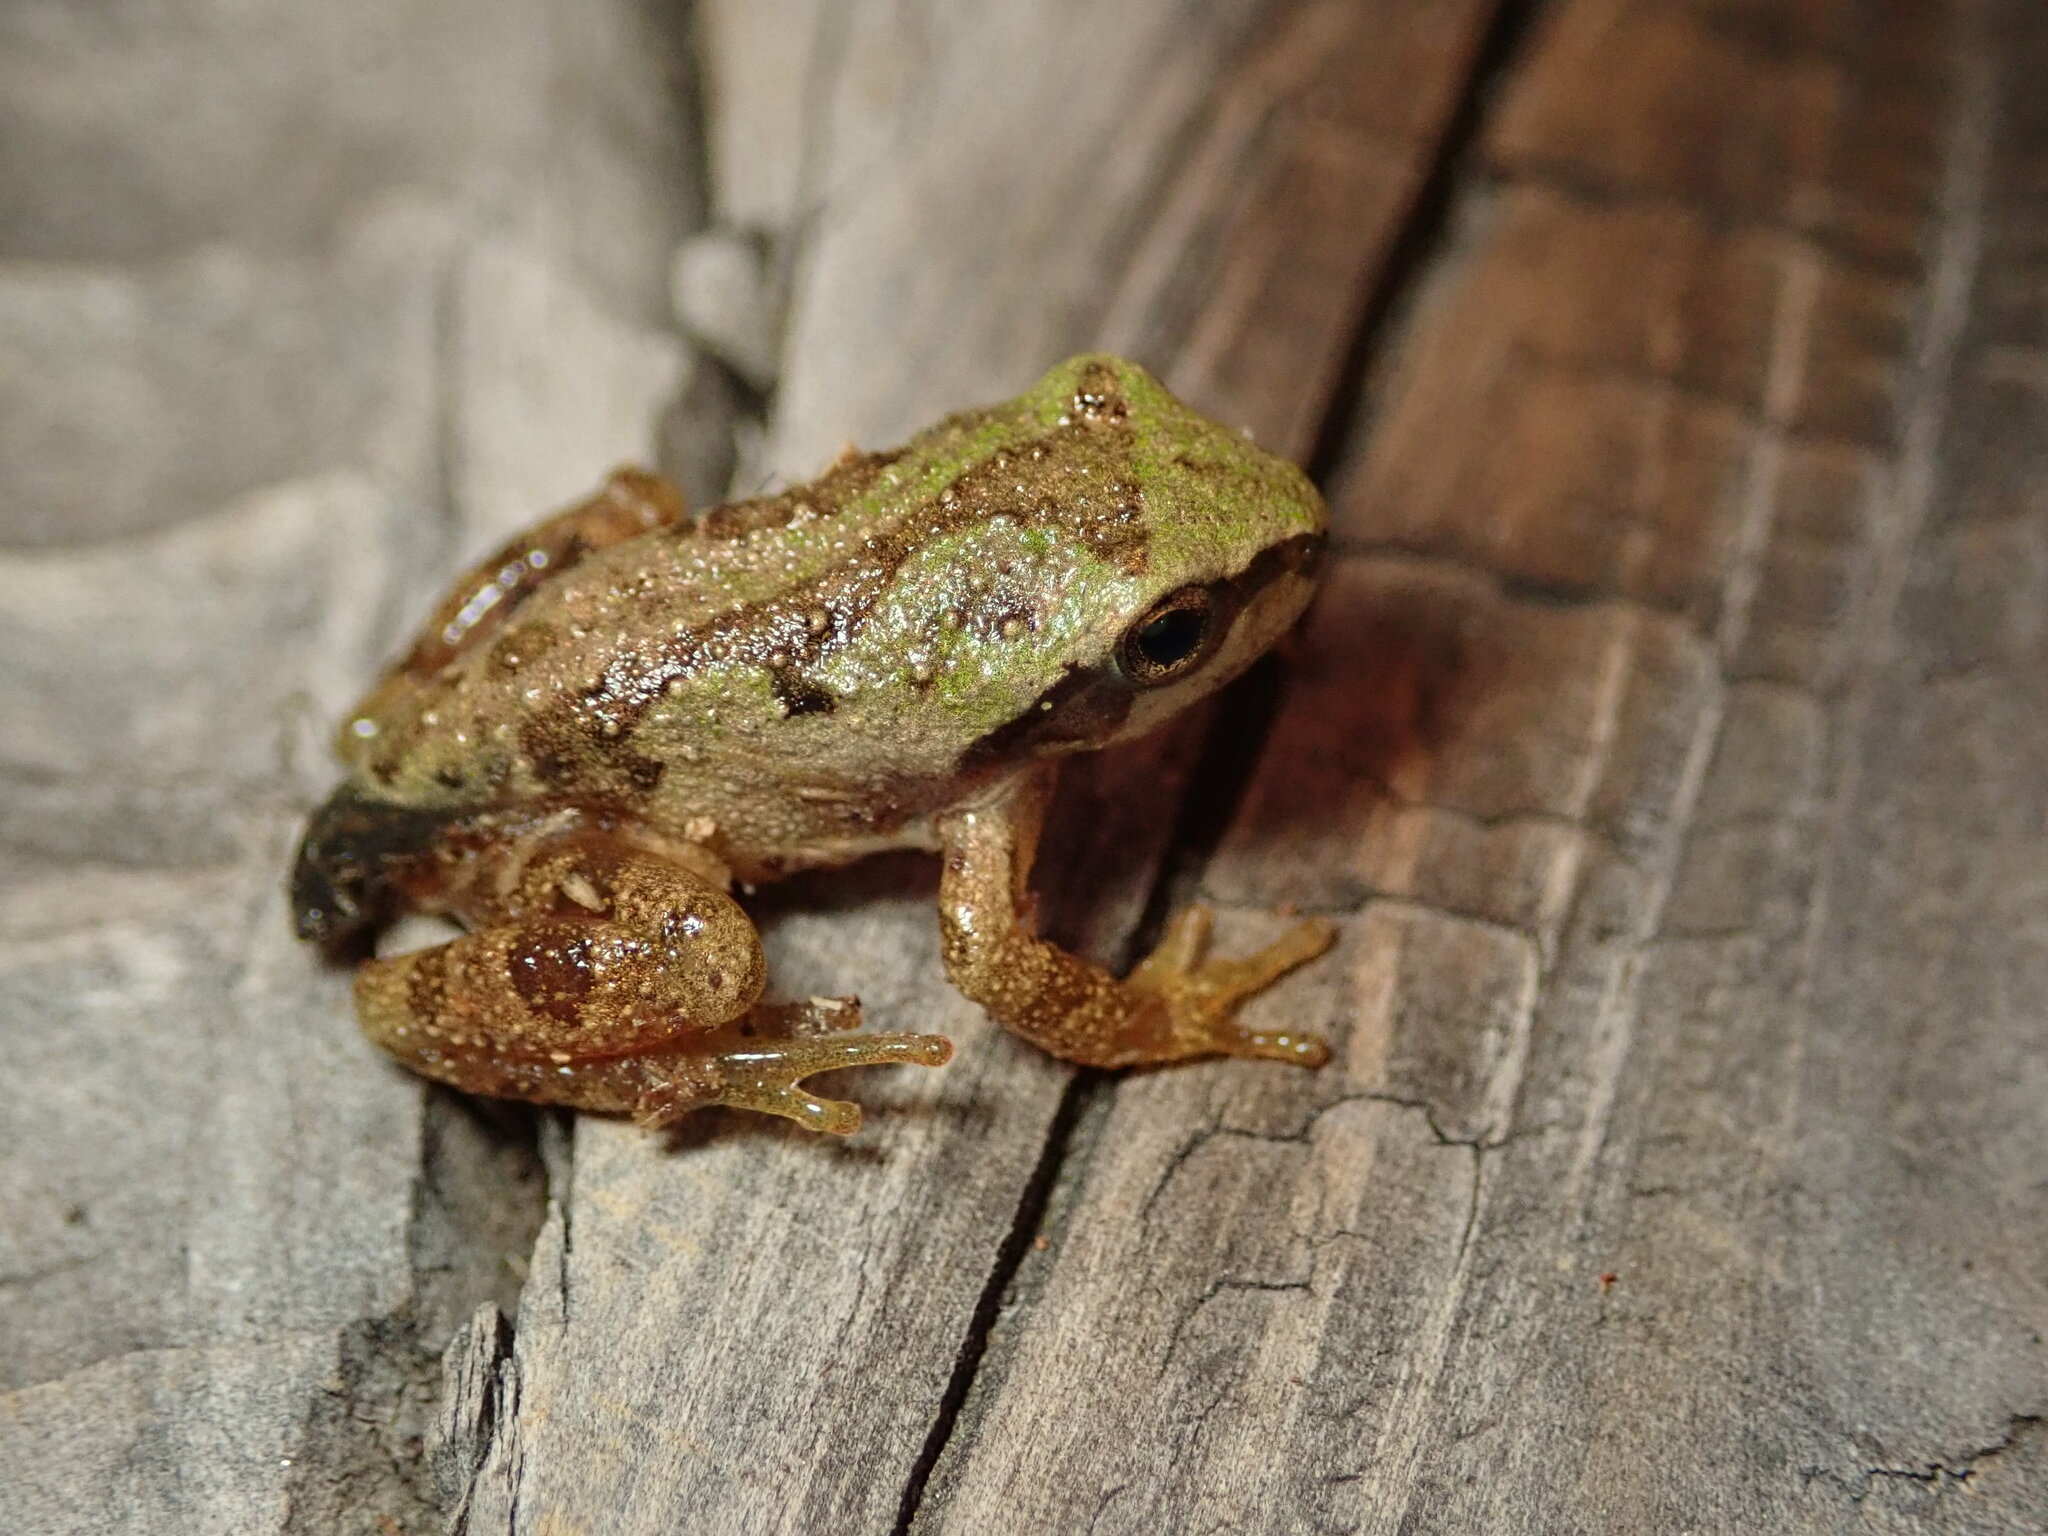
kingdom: Animalia
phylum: Chordata
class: Amphibia
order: Anura
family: Hylidae
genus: Pseudacris
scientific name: Pseudacris regilla
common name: Pacific chorus frog
